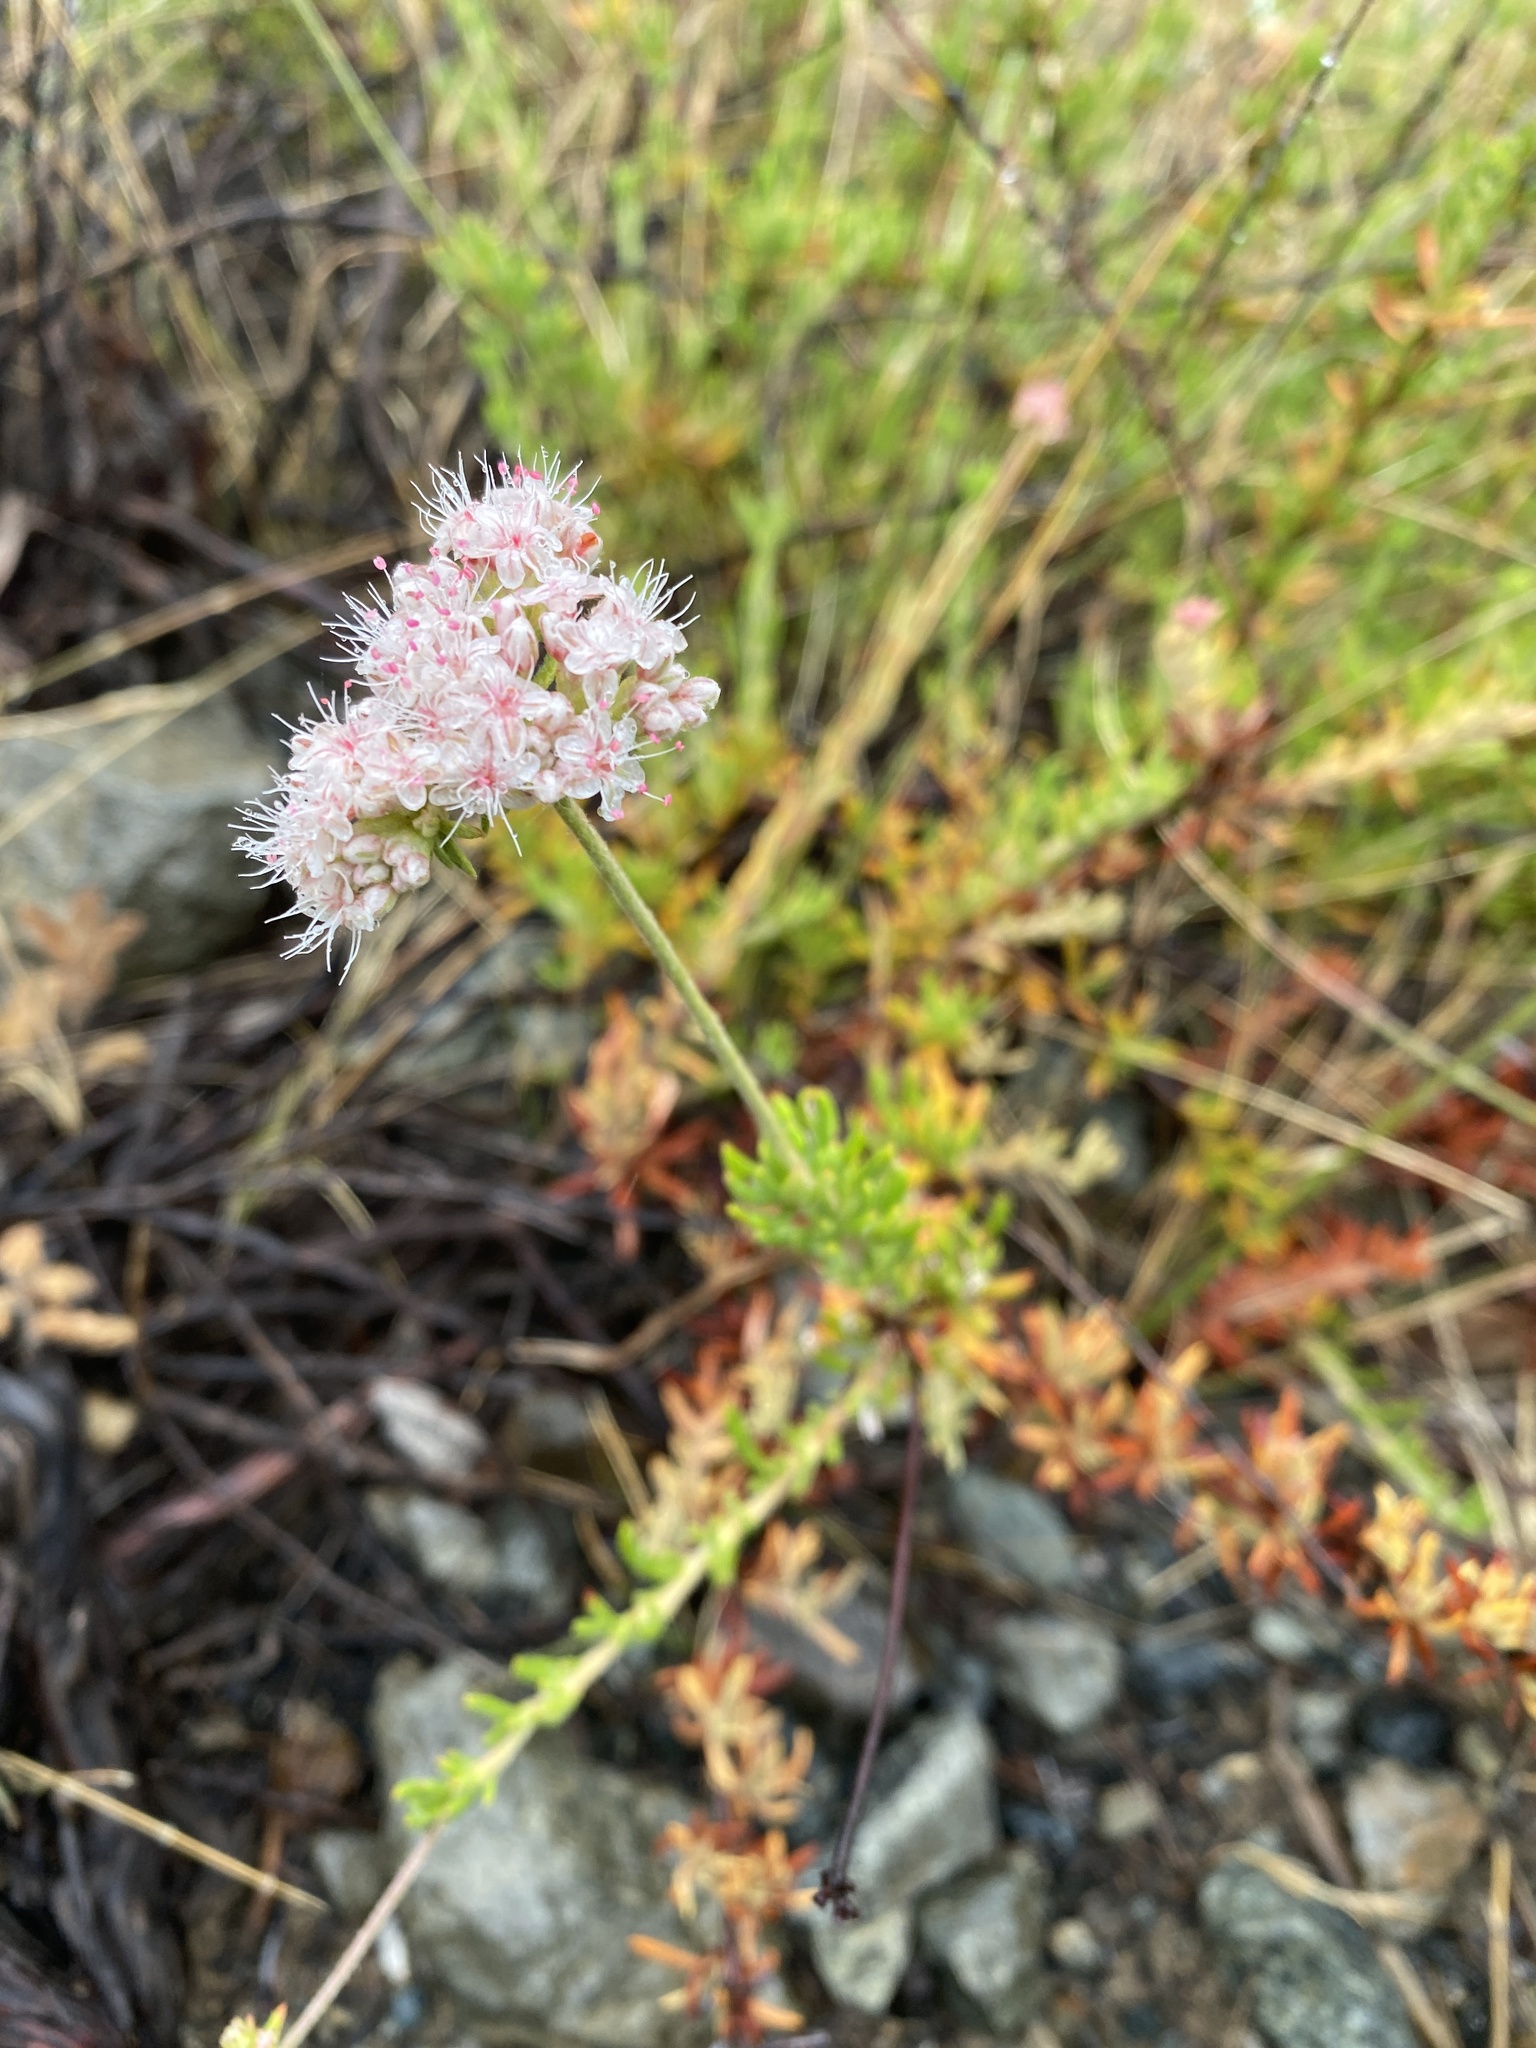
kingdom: Plantae
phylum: Tracheophyta
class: Magnoliopsida
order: Caryophyllales
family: Polygonaceae
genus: Eriogonum
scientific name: Eriogonum fasciculatum
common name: California wild buckwheat
